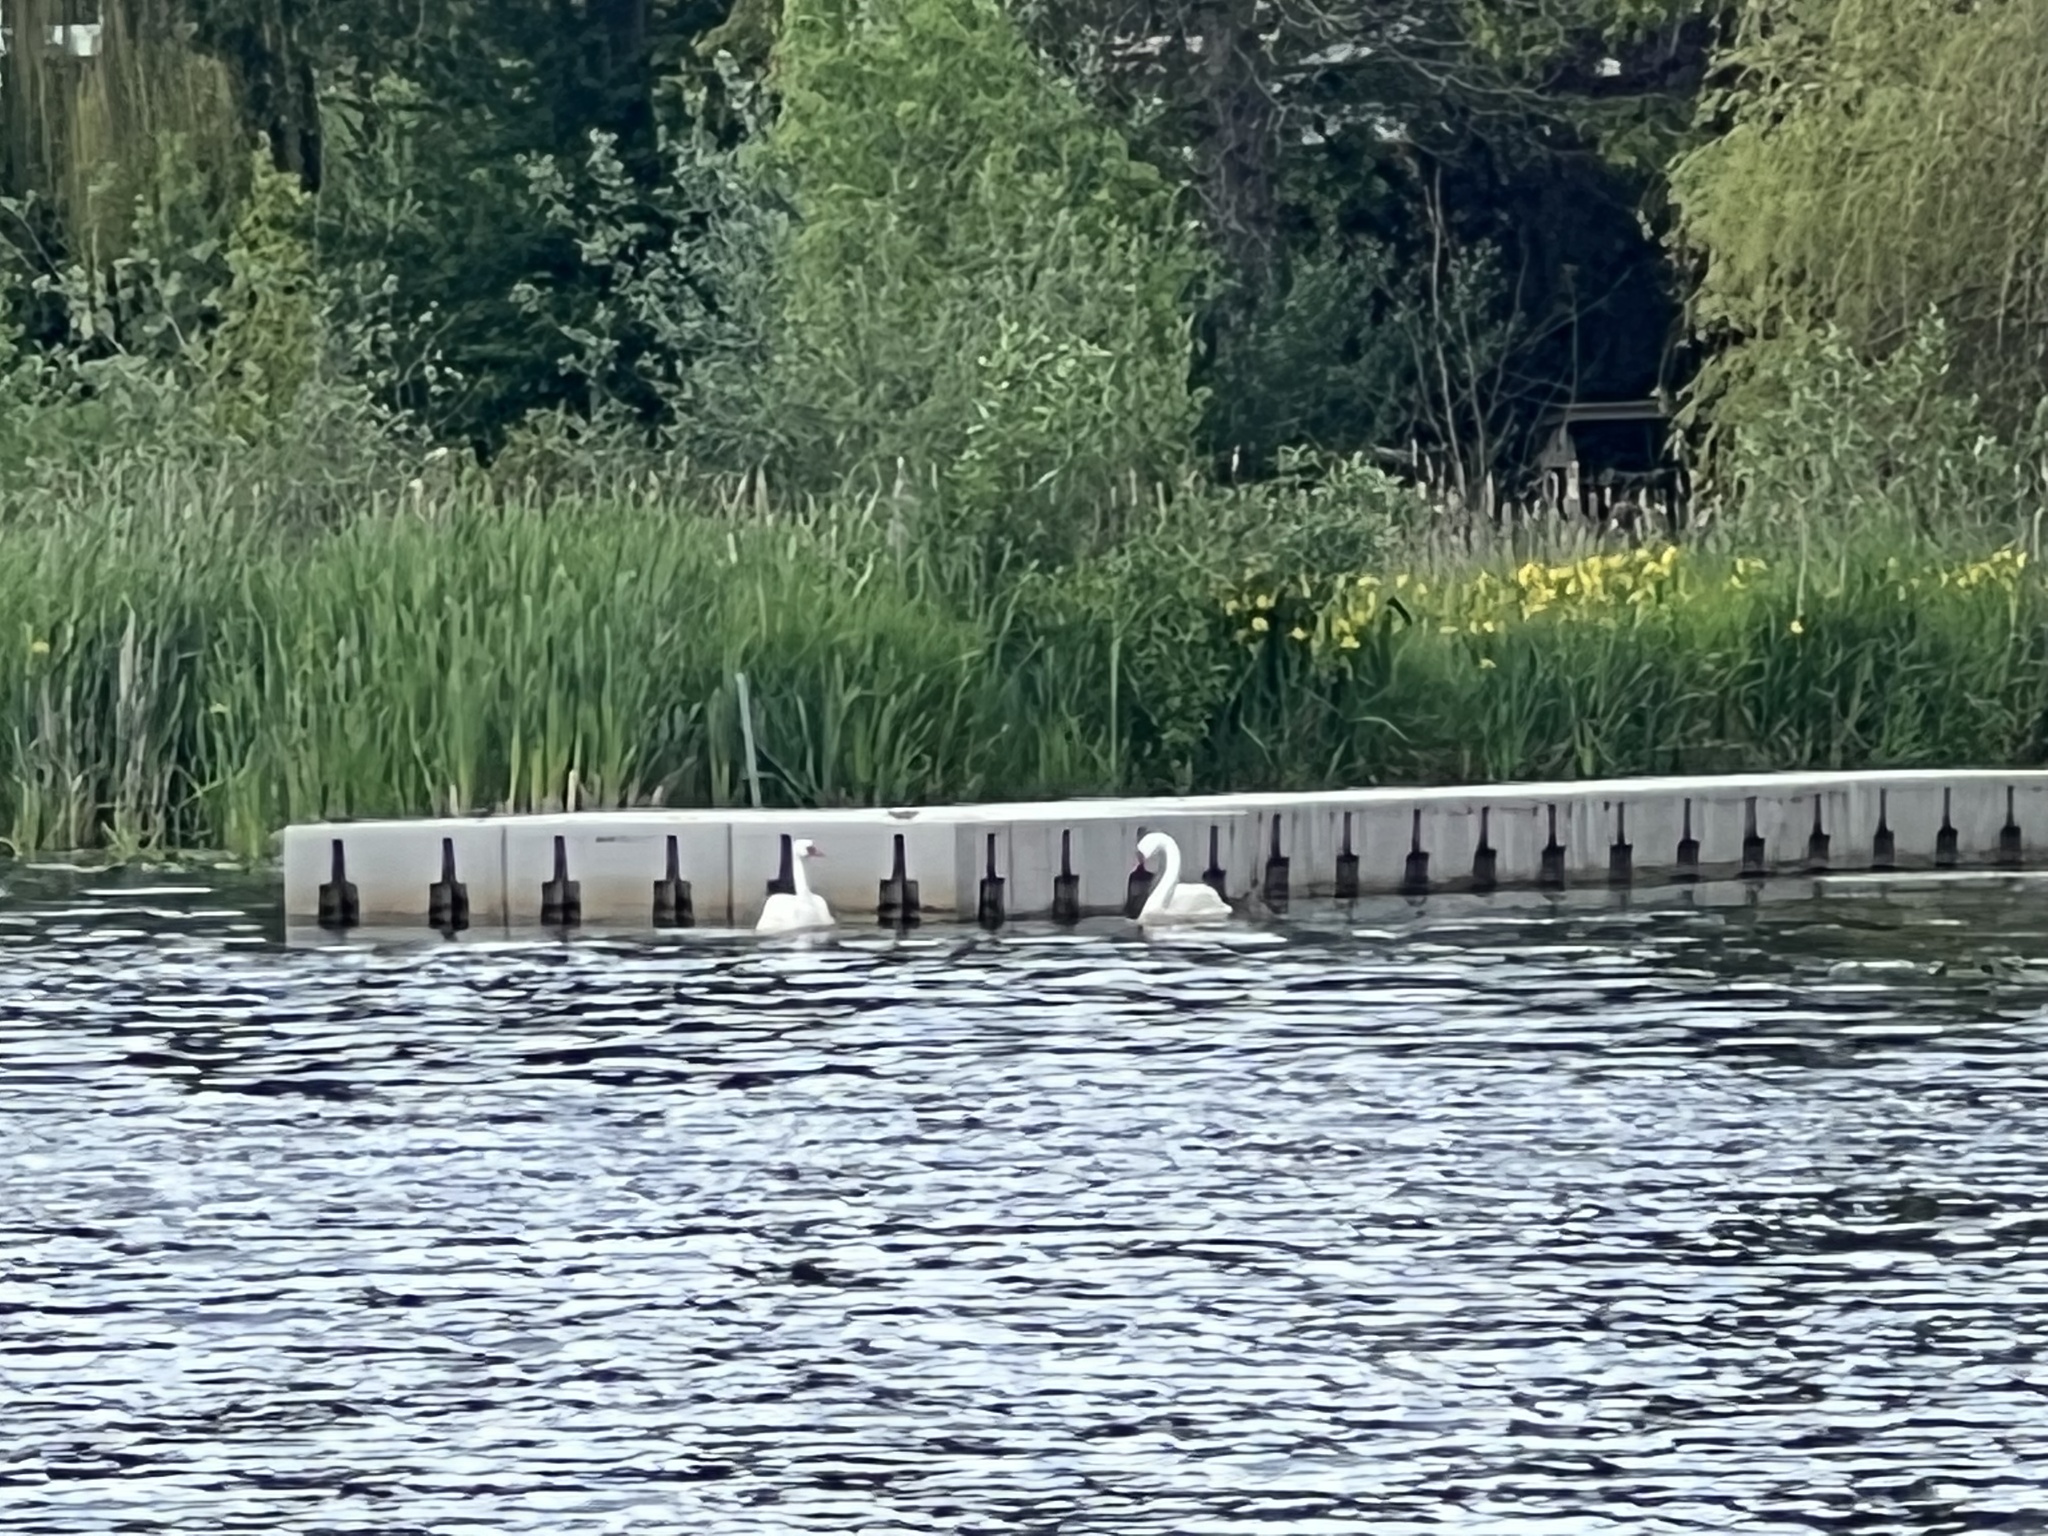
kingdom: Animalia
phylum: Chordata
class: Aves
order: Anseriformes
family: Anatidae
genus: Cygnus
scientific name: Cygnus olor
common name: Mute swan
